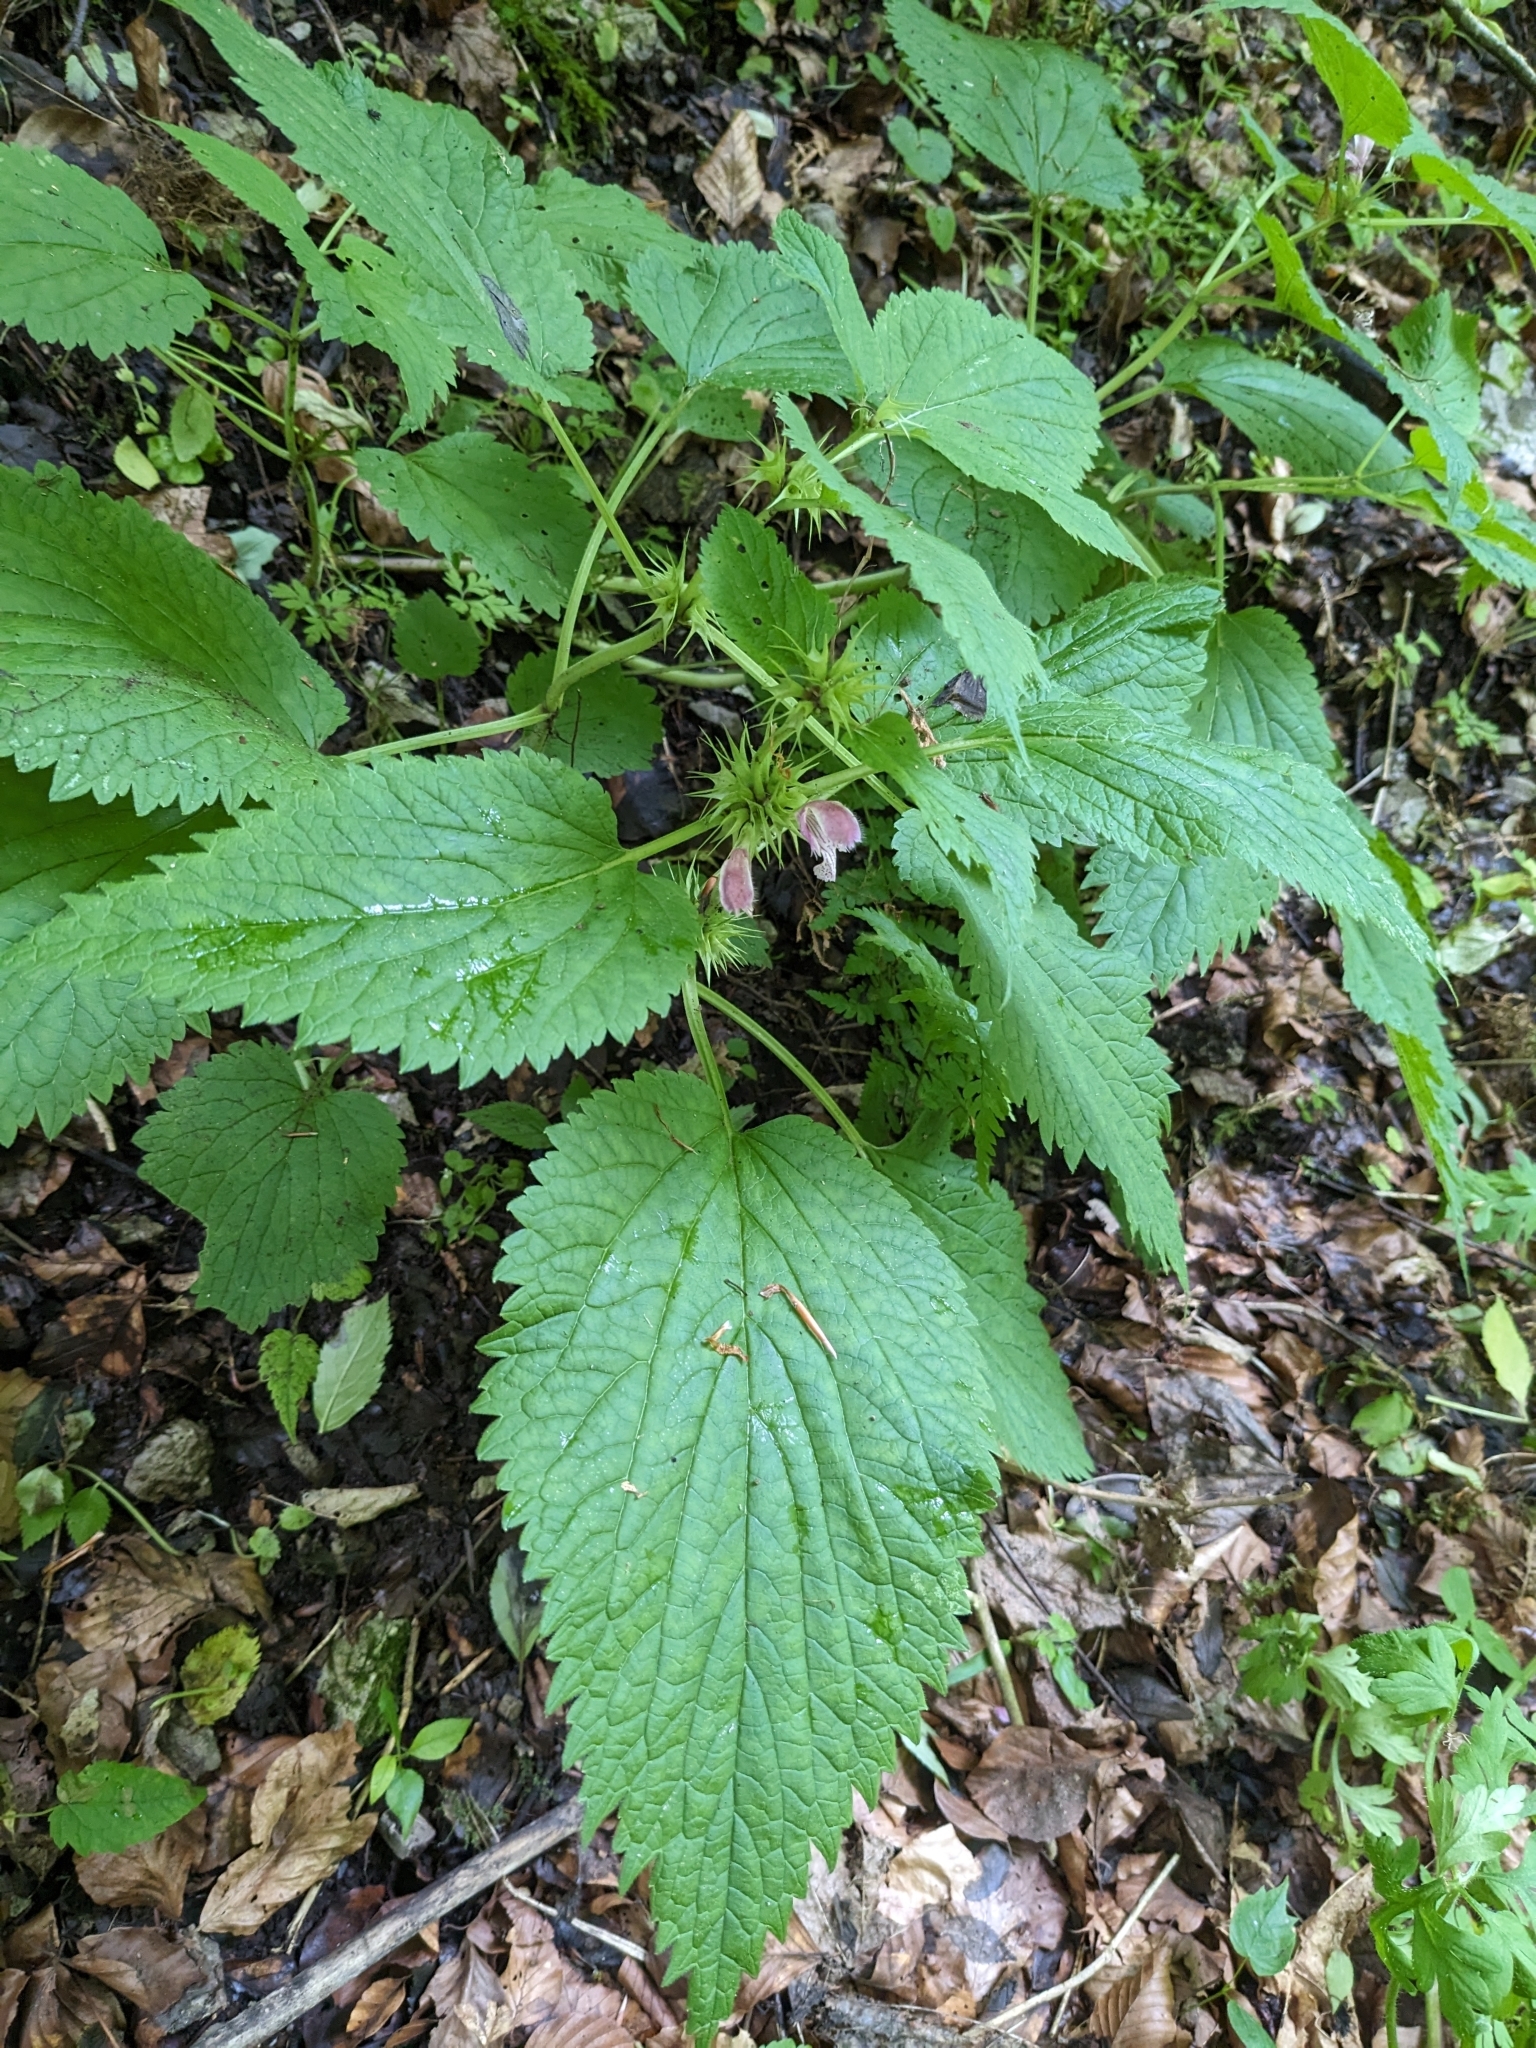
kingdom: Plantae
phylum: Tracheophyta
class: Magnoliopsida
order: Lamiales
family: Lamiaceae
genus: Lamium
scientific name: Lamium orvala
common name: Balm-leaved archangel
